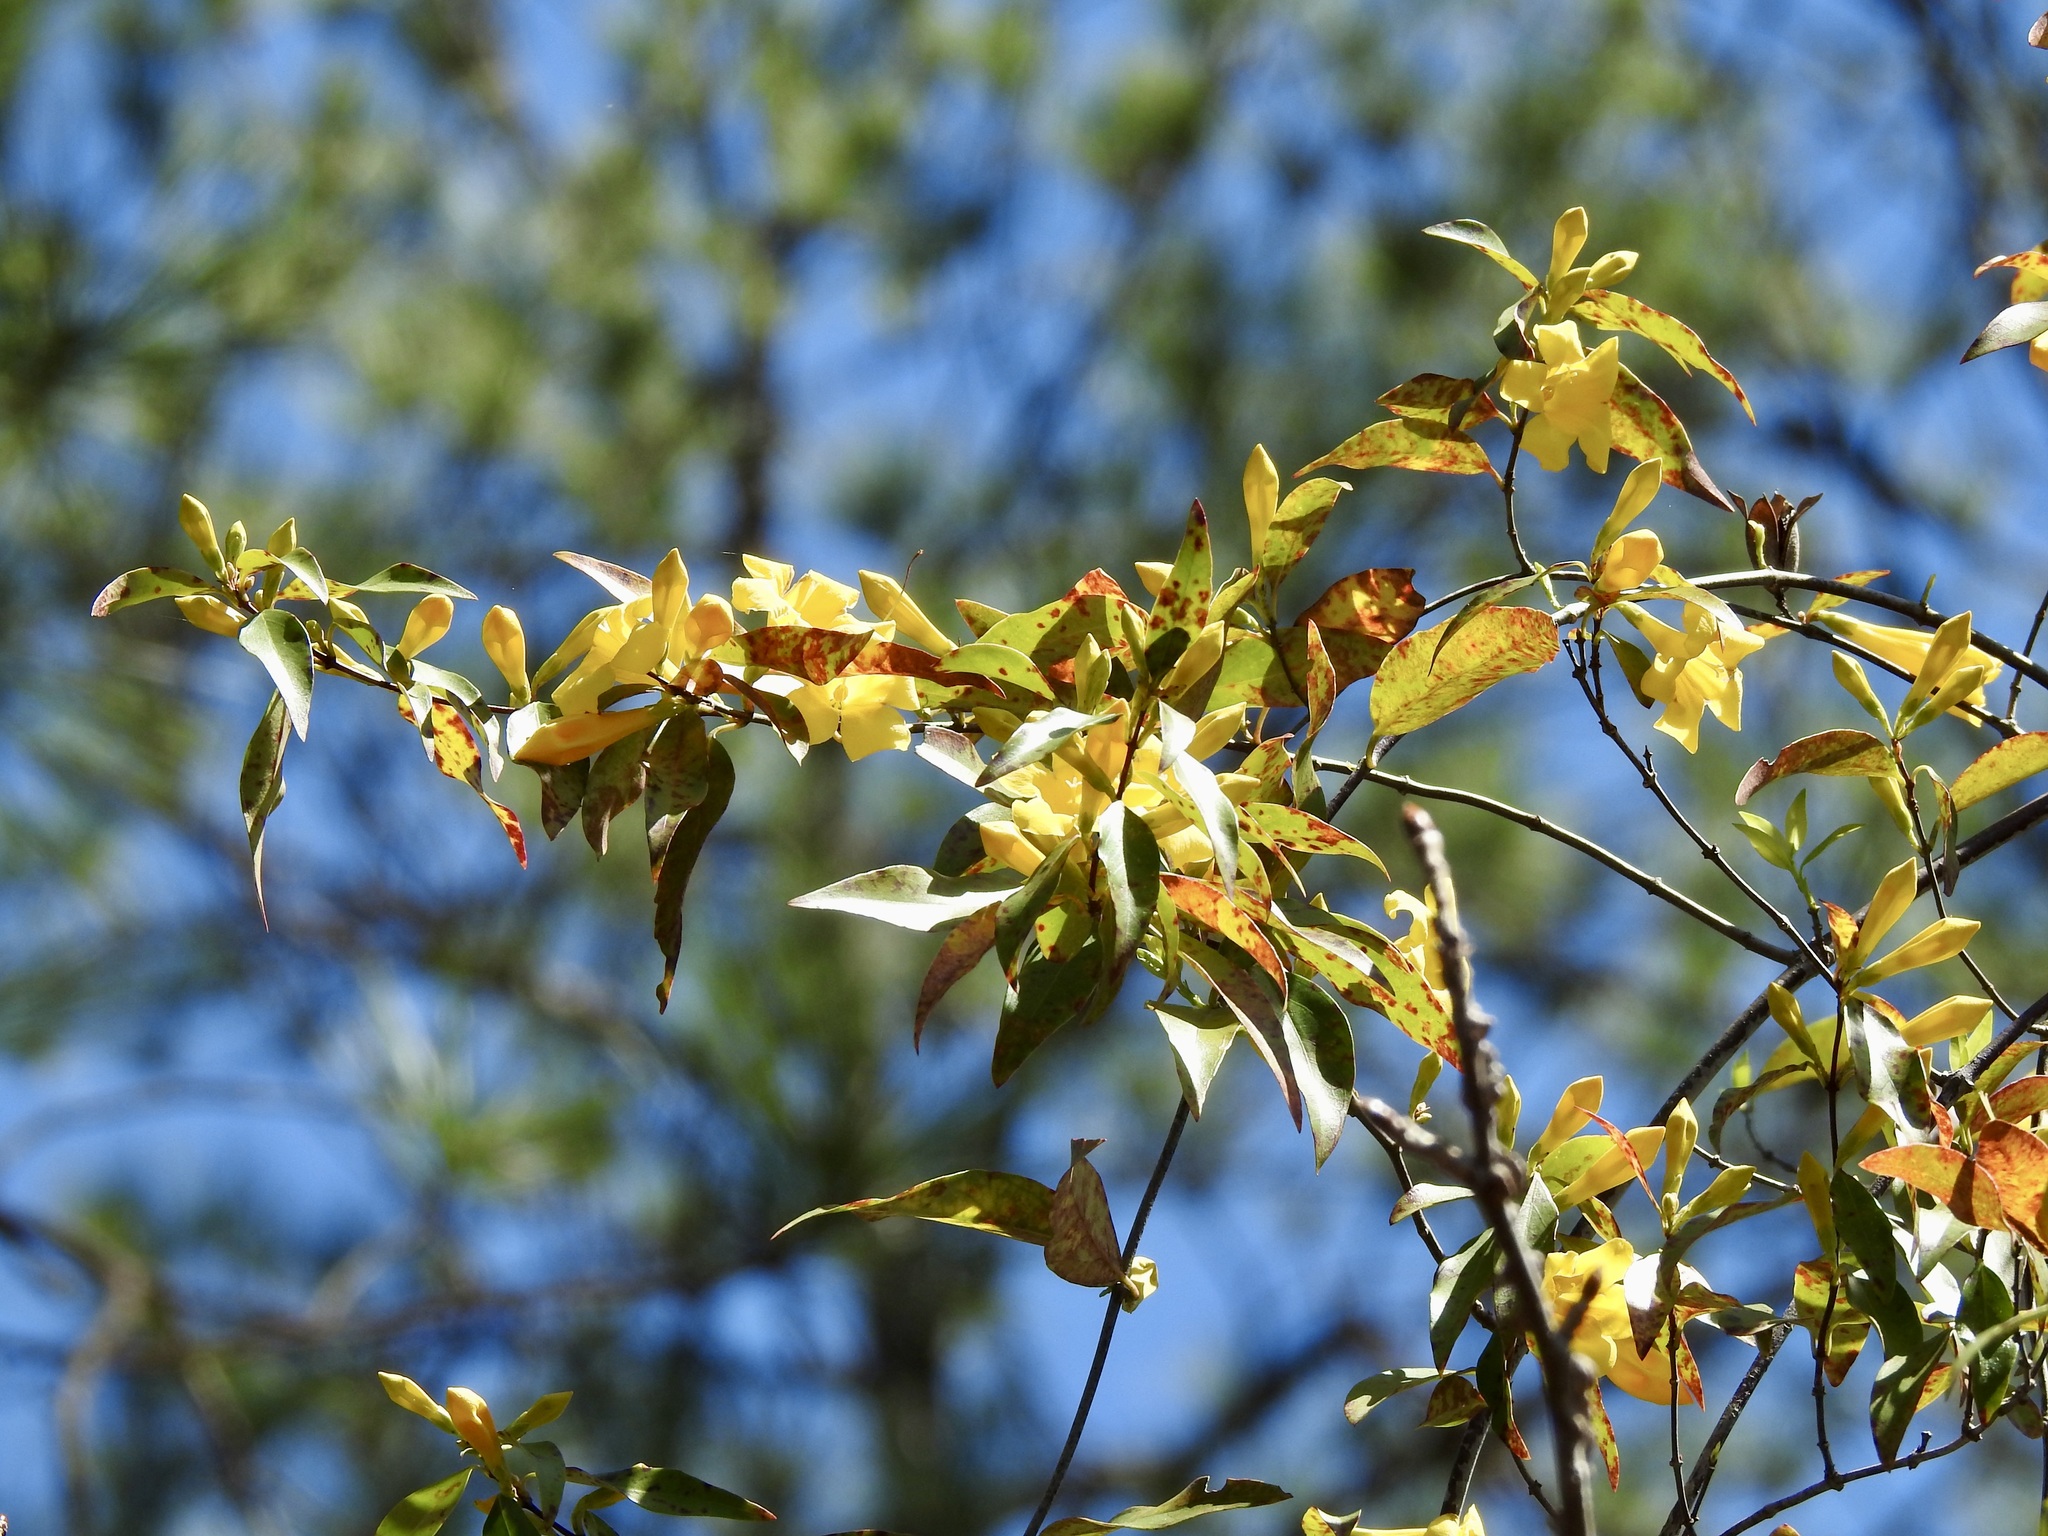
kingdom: Plantae
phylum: Tracheophyta
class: Magnoliopsida
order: Gentianales
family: Gelsemiaceae
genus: Gelsemium
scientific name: Gelsemium sempervirens
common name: Carolina-jasmine
